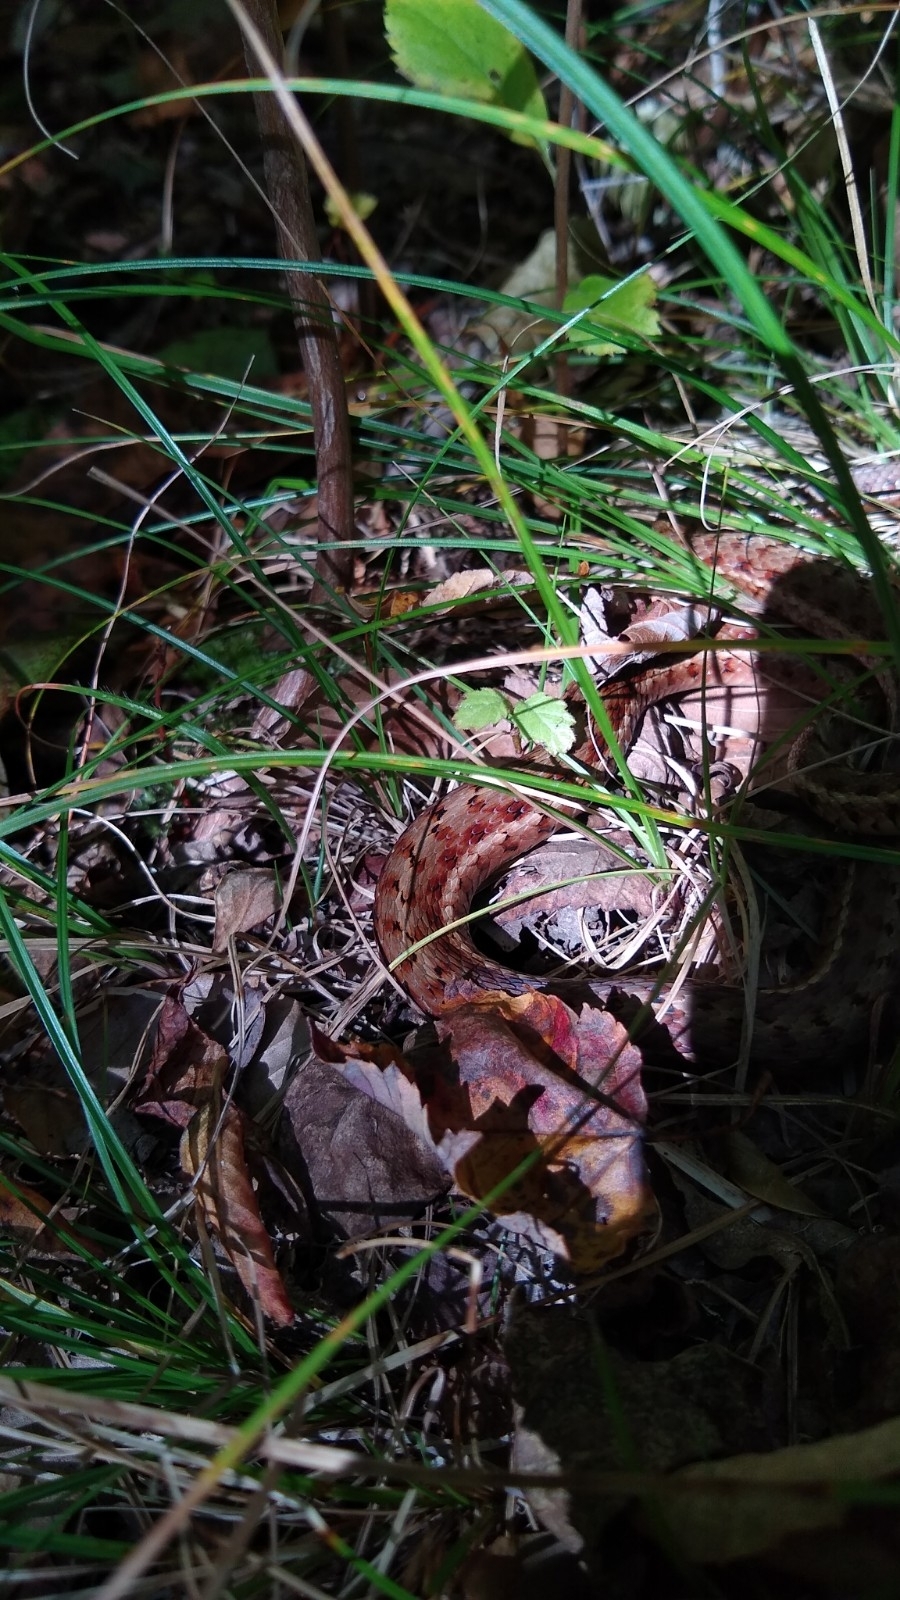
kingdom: Animalia
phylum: Chordata
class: Squamata
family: Colubridae
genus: Thamnophis
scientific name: Thamnophis sirtalis
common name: Common garter snake
